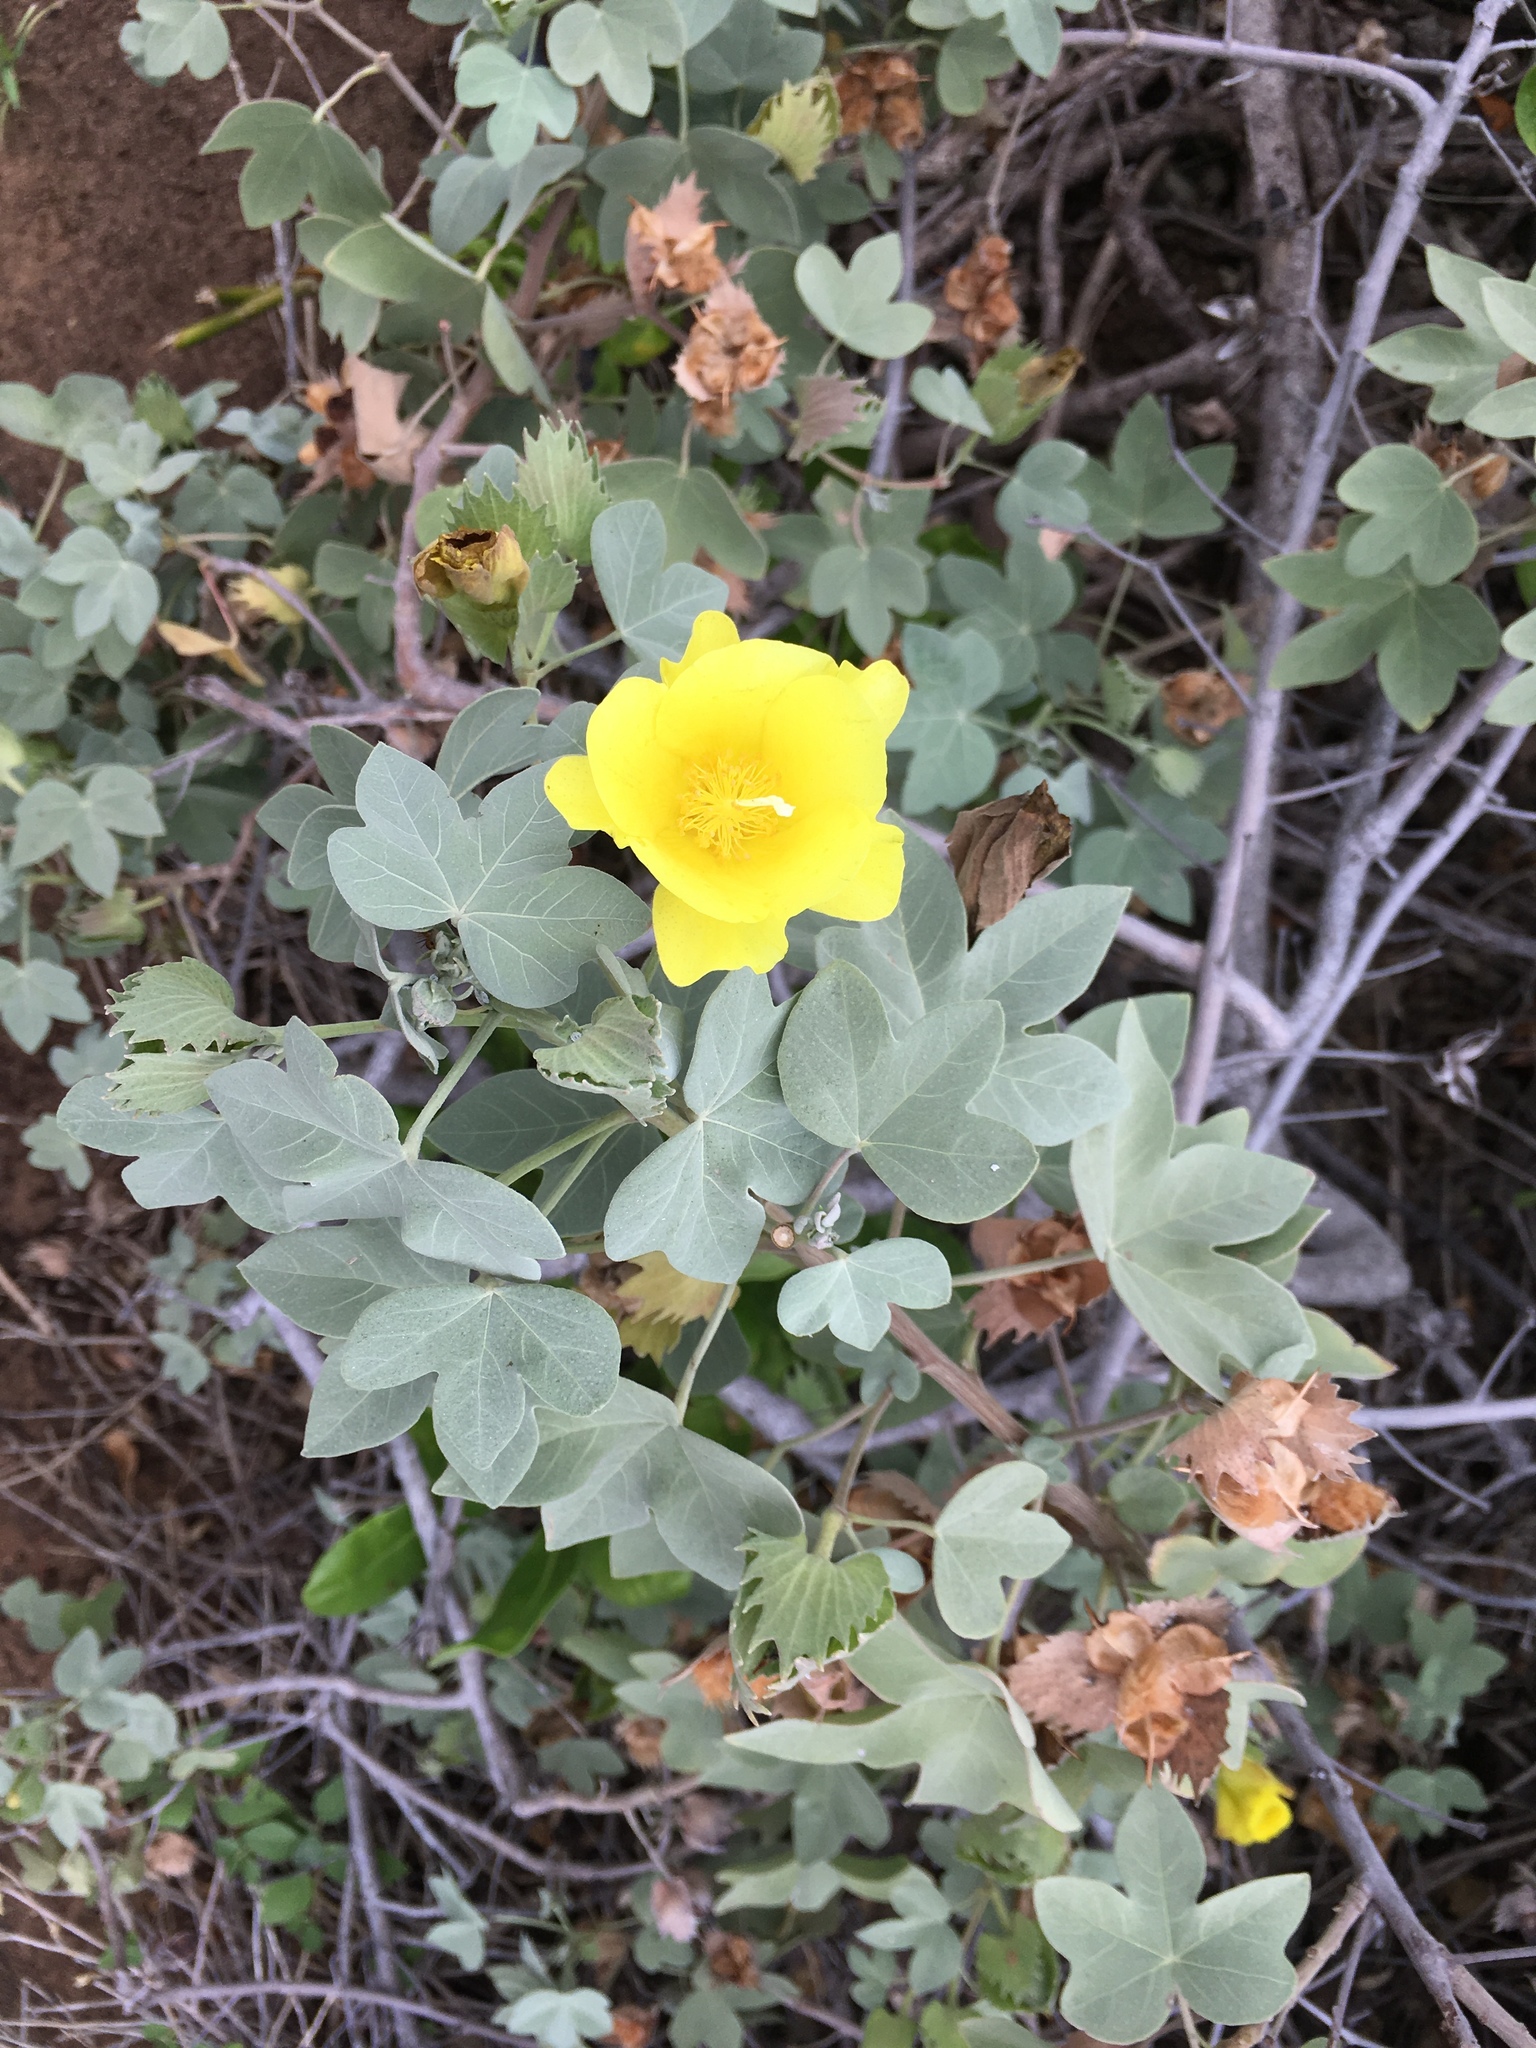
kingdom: Plantae
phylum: Tracheophyta
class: Magnoliopsida
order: Malvales
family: Malvaceae
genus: Gossypium
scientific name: Gossypium tomentosum
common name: Hawaiian cotton
